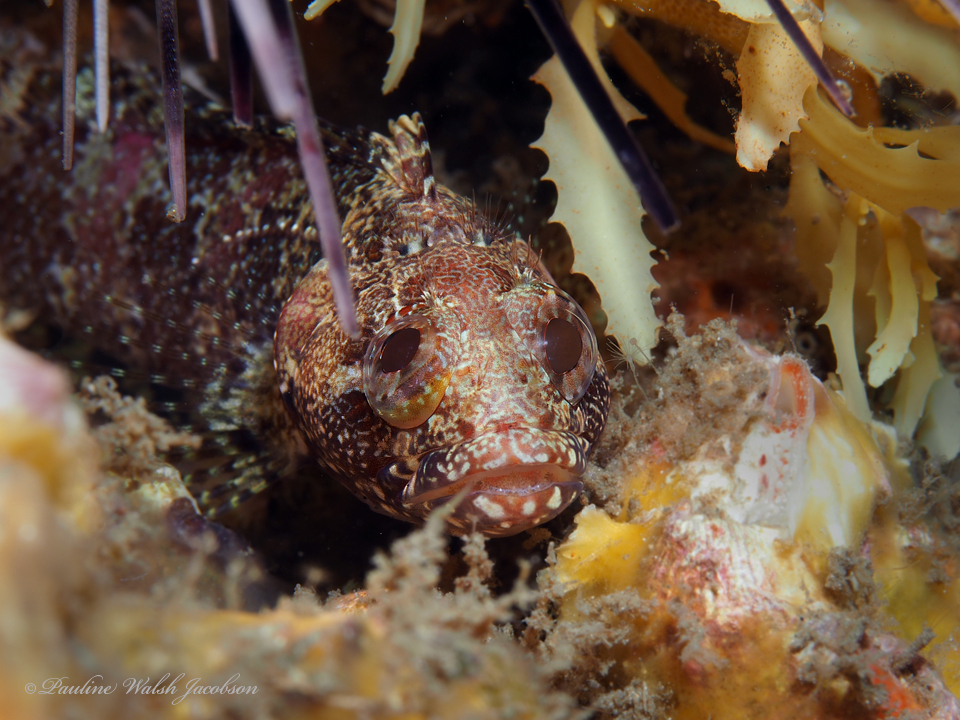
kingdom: Animalia
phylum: Chordata
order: Perciformes
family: Labrisomidae
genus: Gobioclinus
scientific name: Gobioclinus kalisherae
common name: Downy blenny
